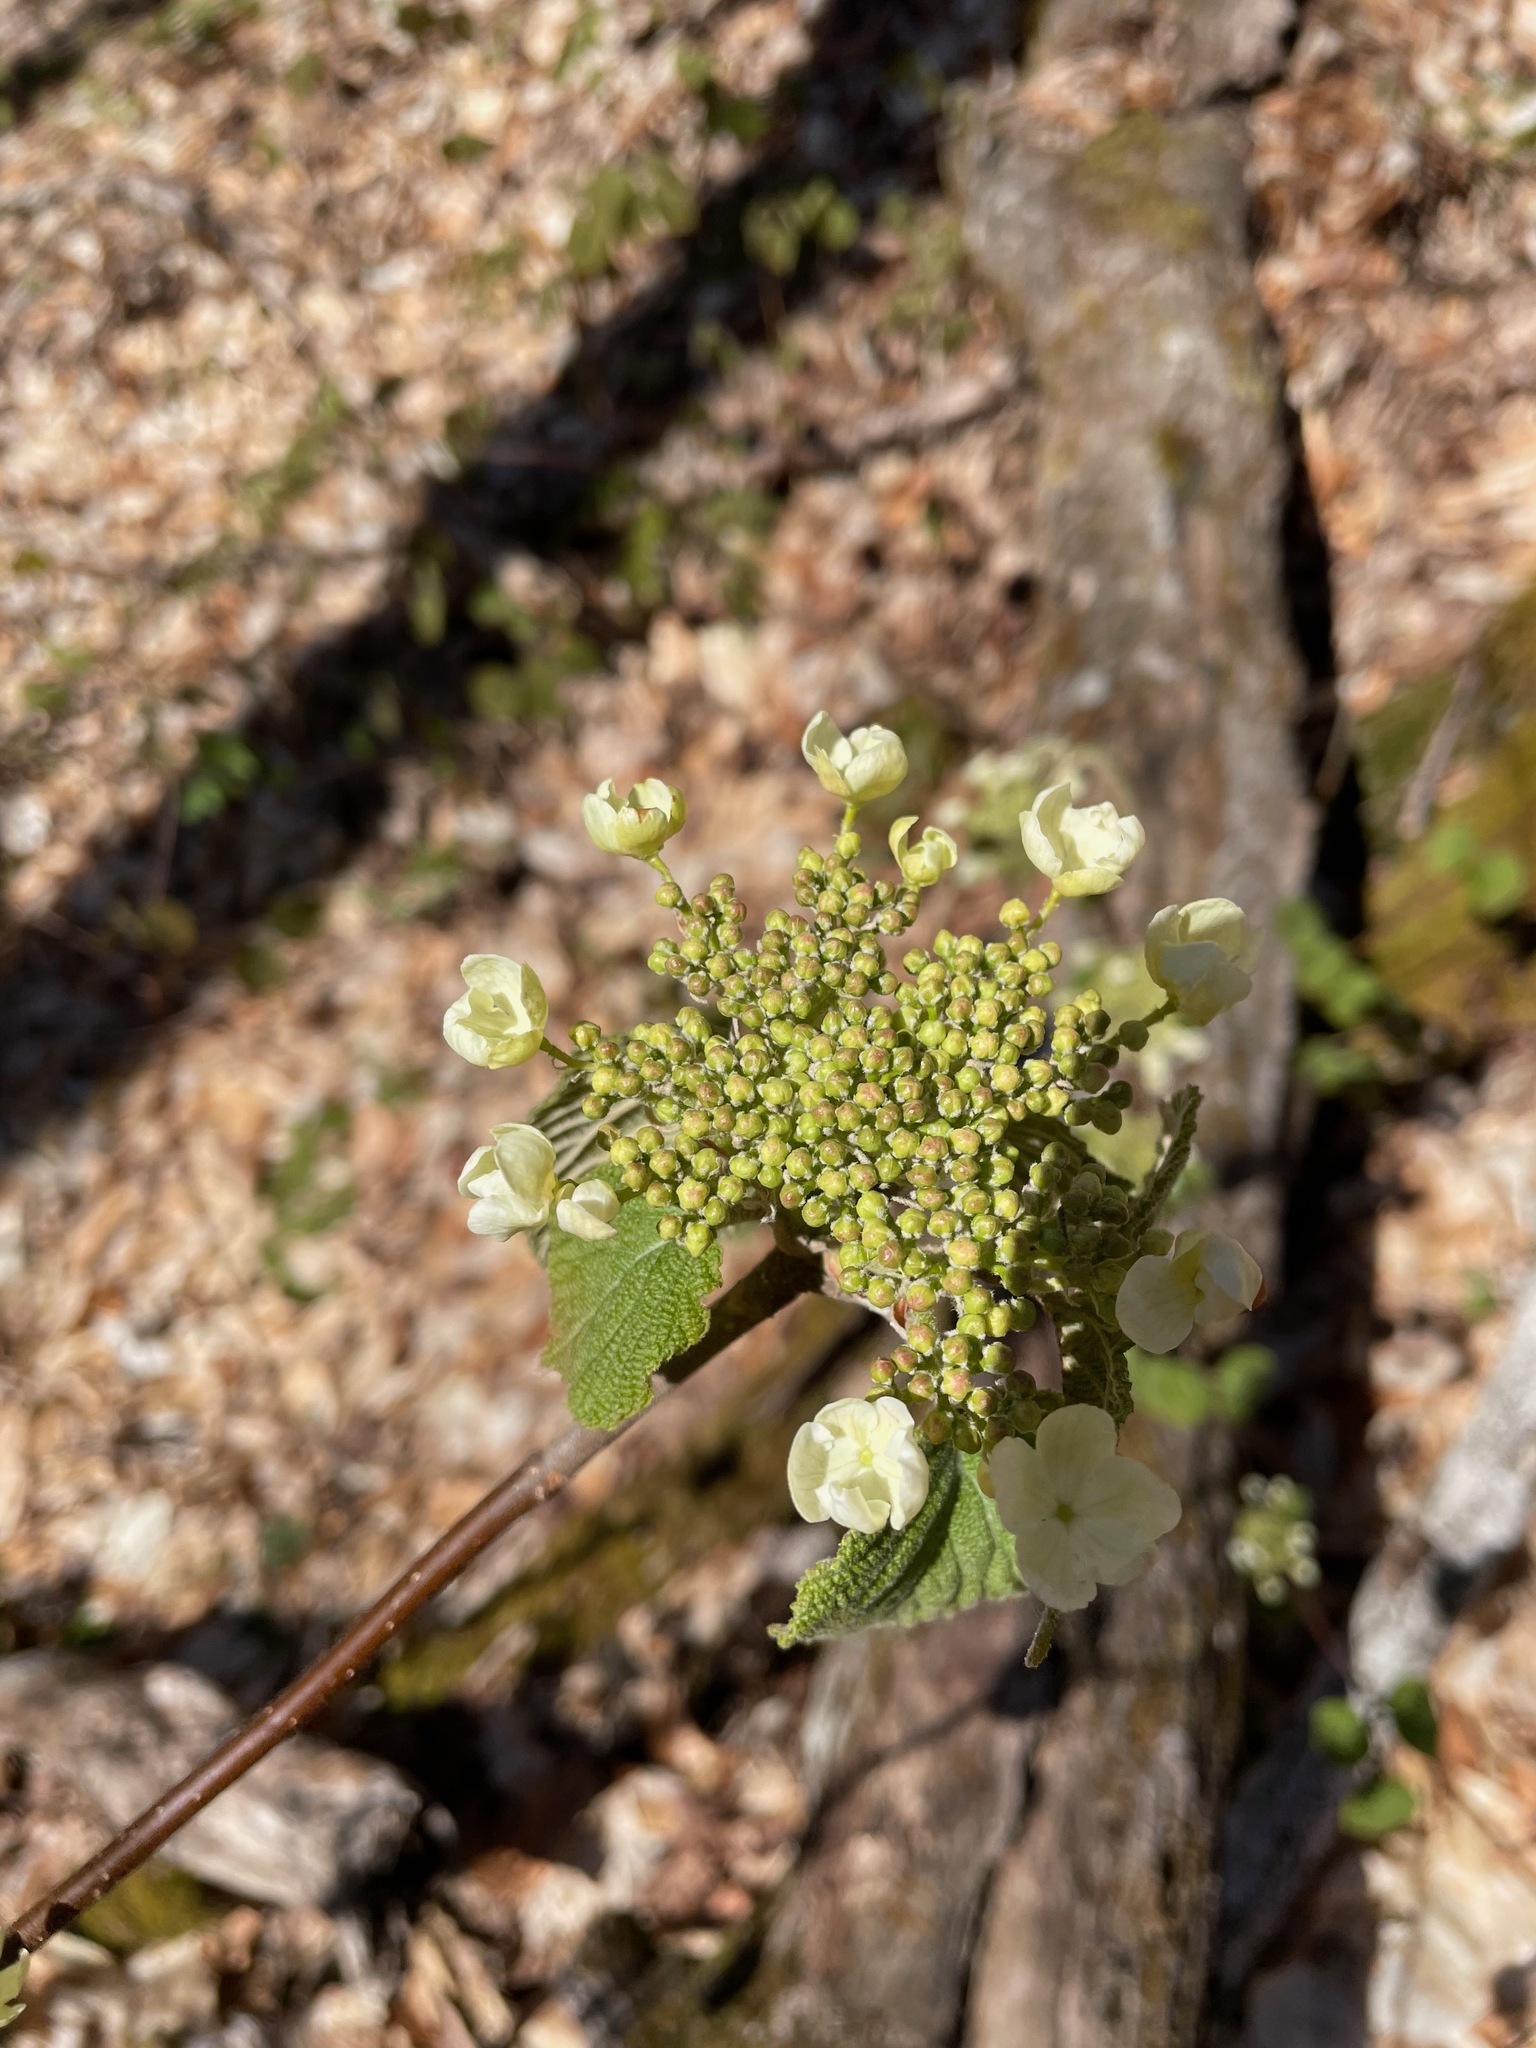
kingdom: Plantae
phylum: Tracheophyta
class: Magnoliopsida
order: Dipsacales
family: Viburnaceae
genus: Viburnum
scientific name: Viburnum lantanoides
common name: Hobblebush
